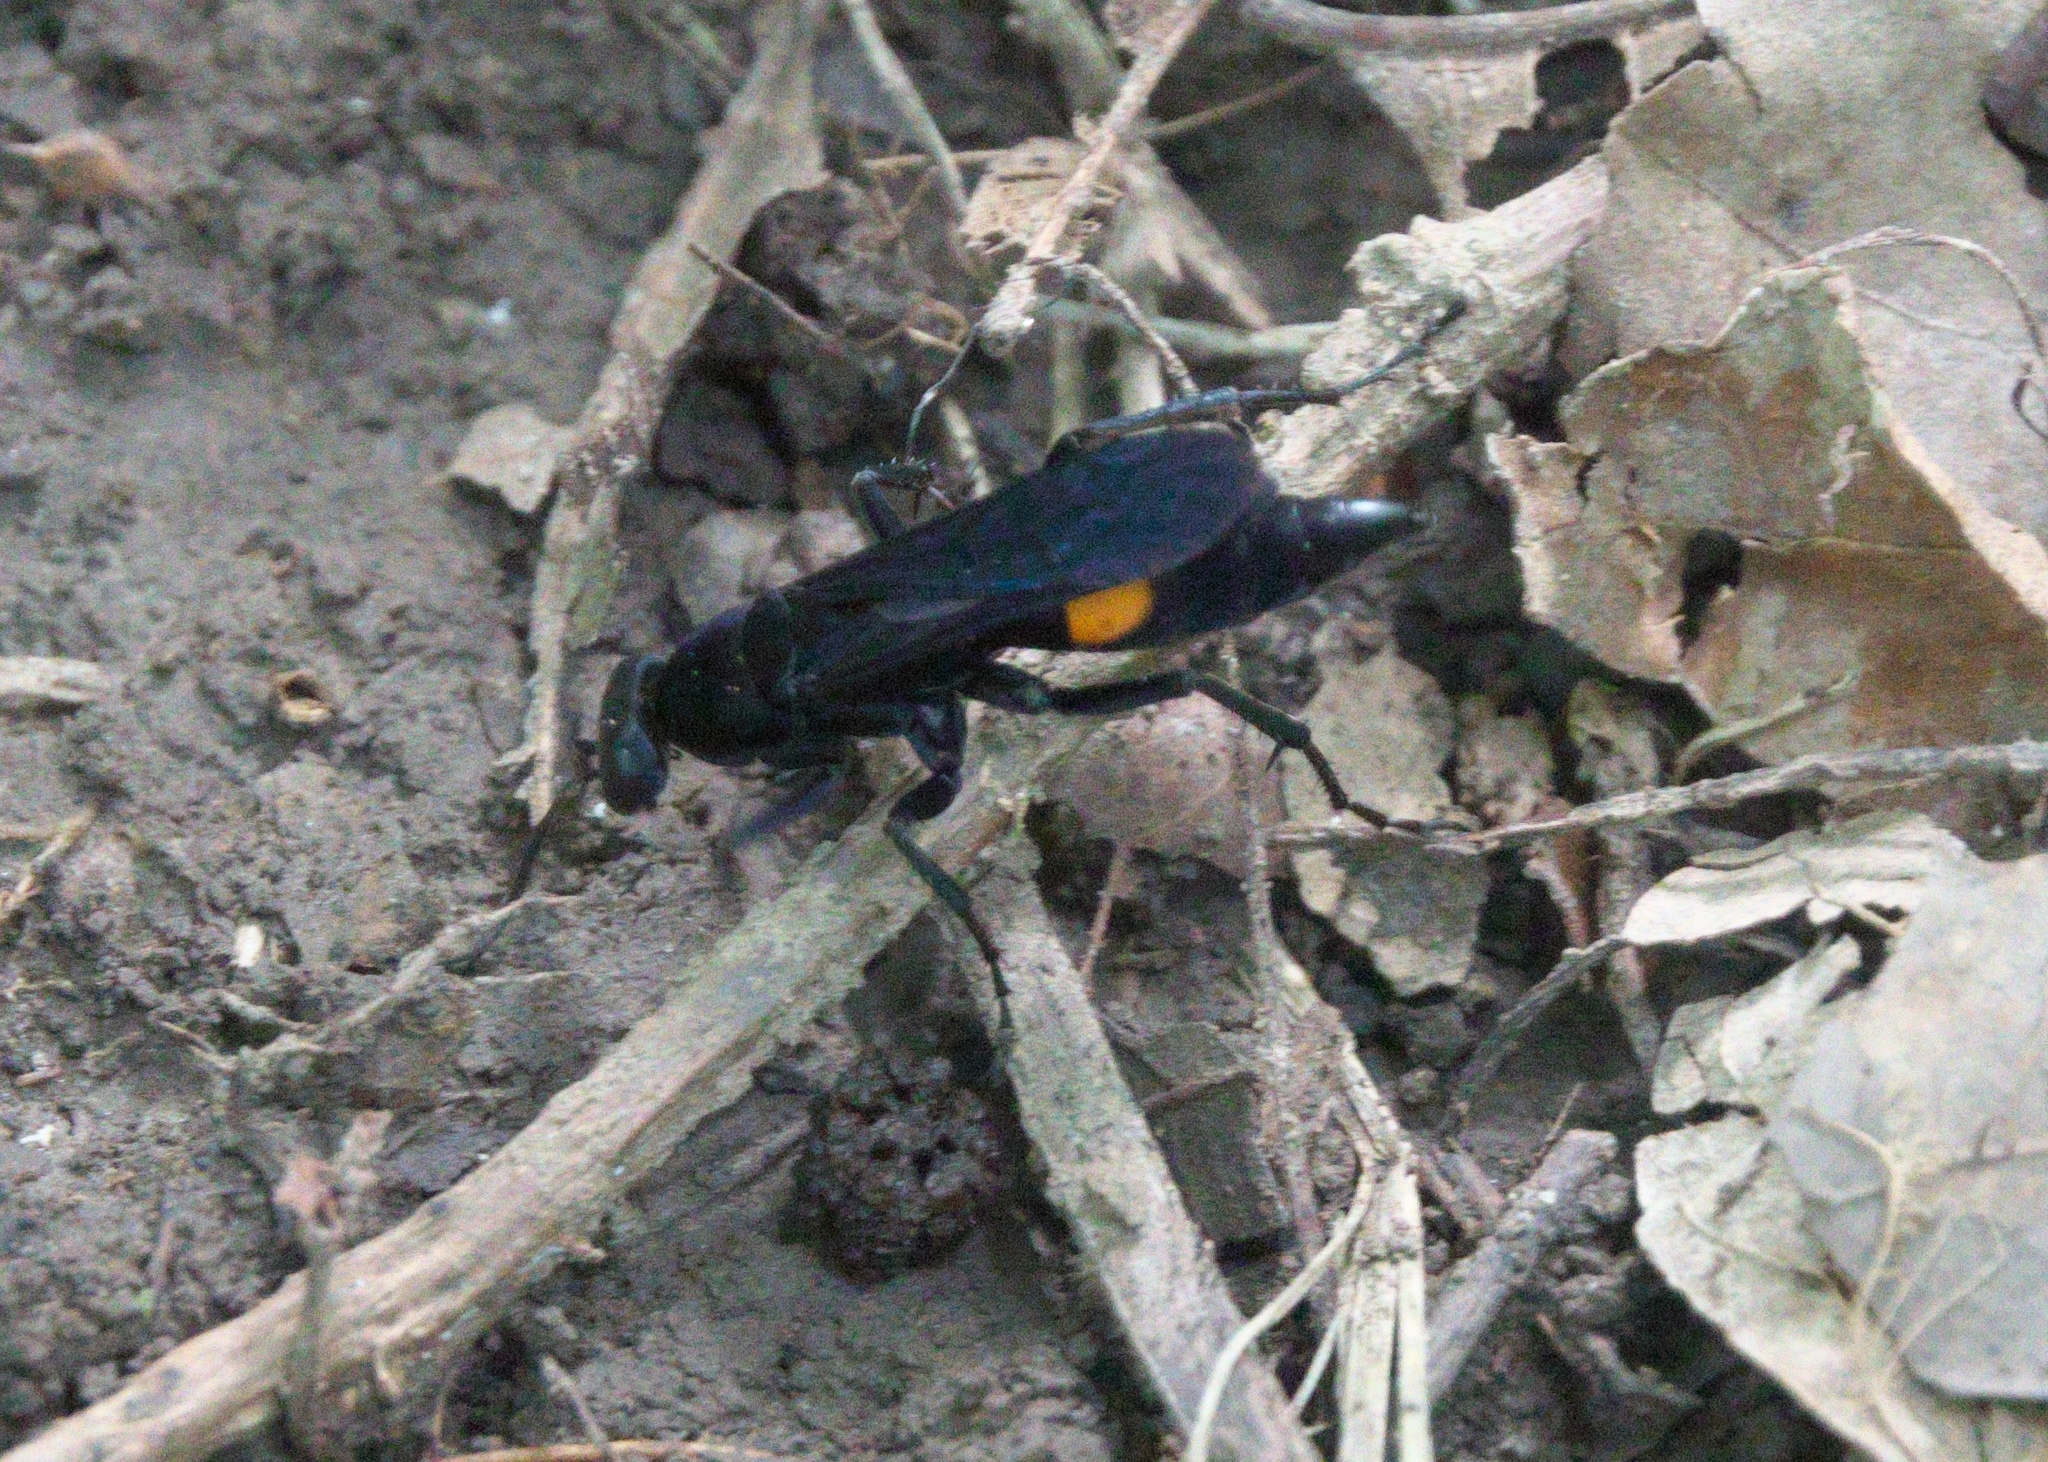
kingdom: Animalia
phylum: Arthropoda
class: Insecta
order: Hymenoptera
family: Pompilidae
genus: Psorthaspis
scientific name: Psorthaspis brimleyi
